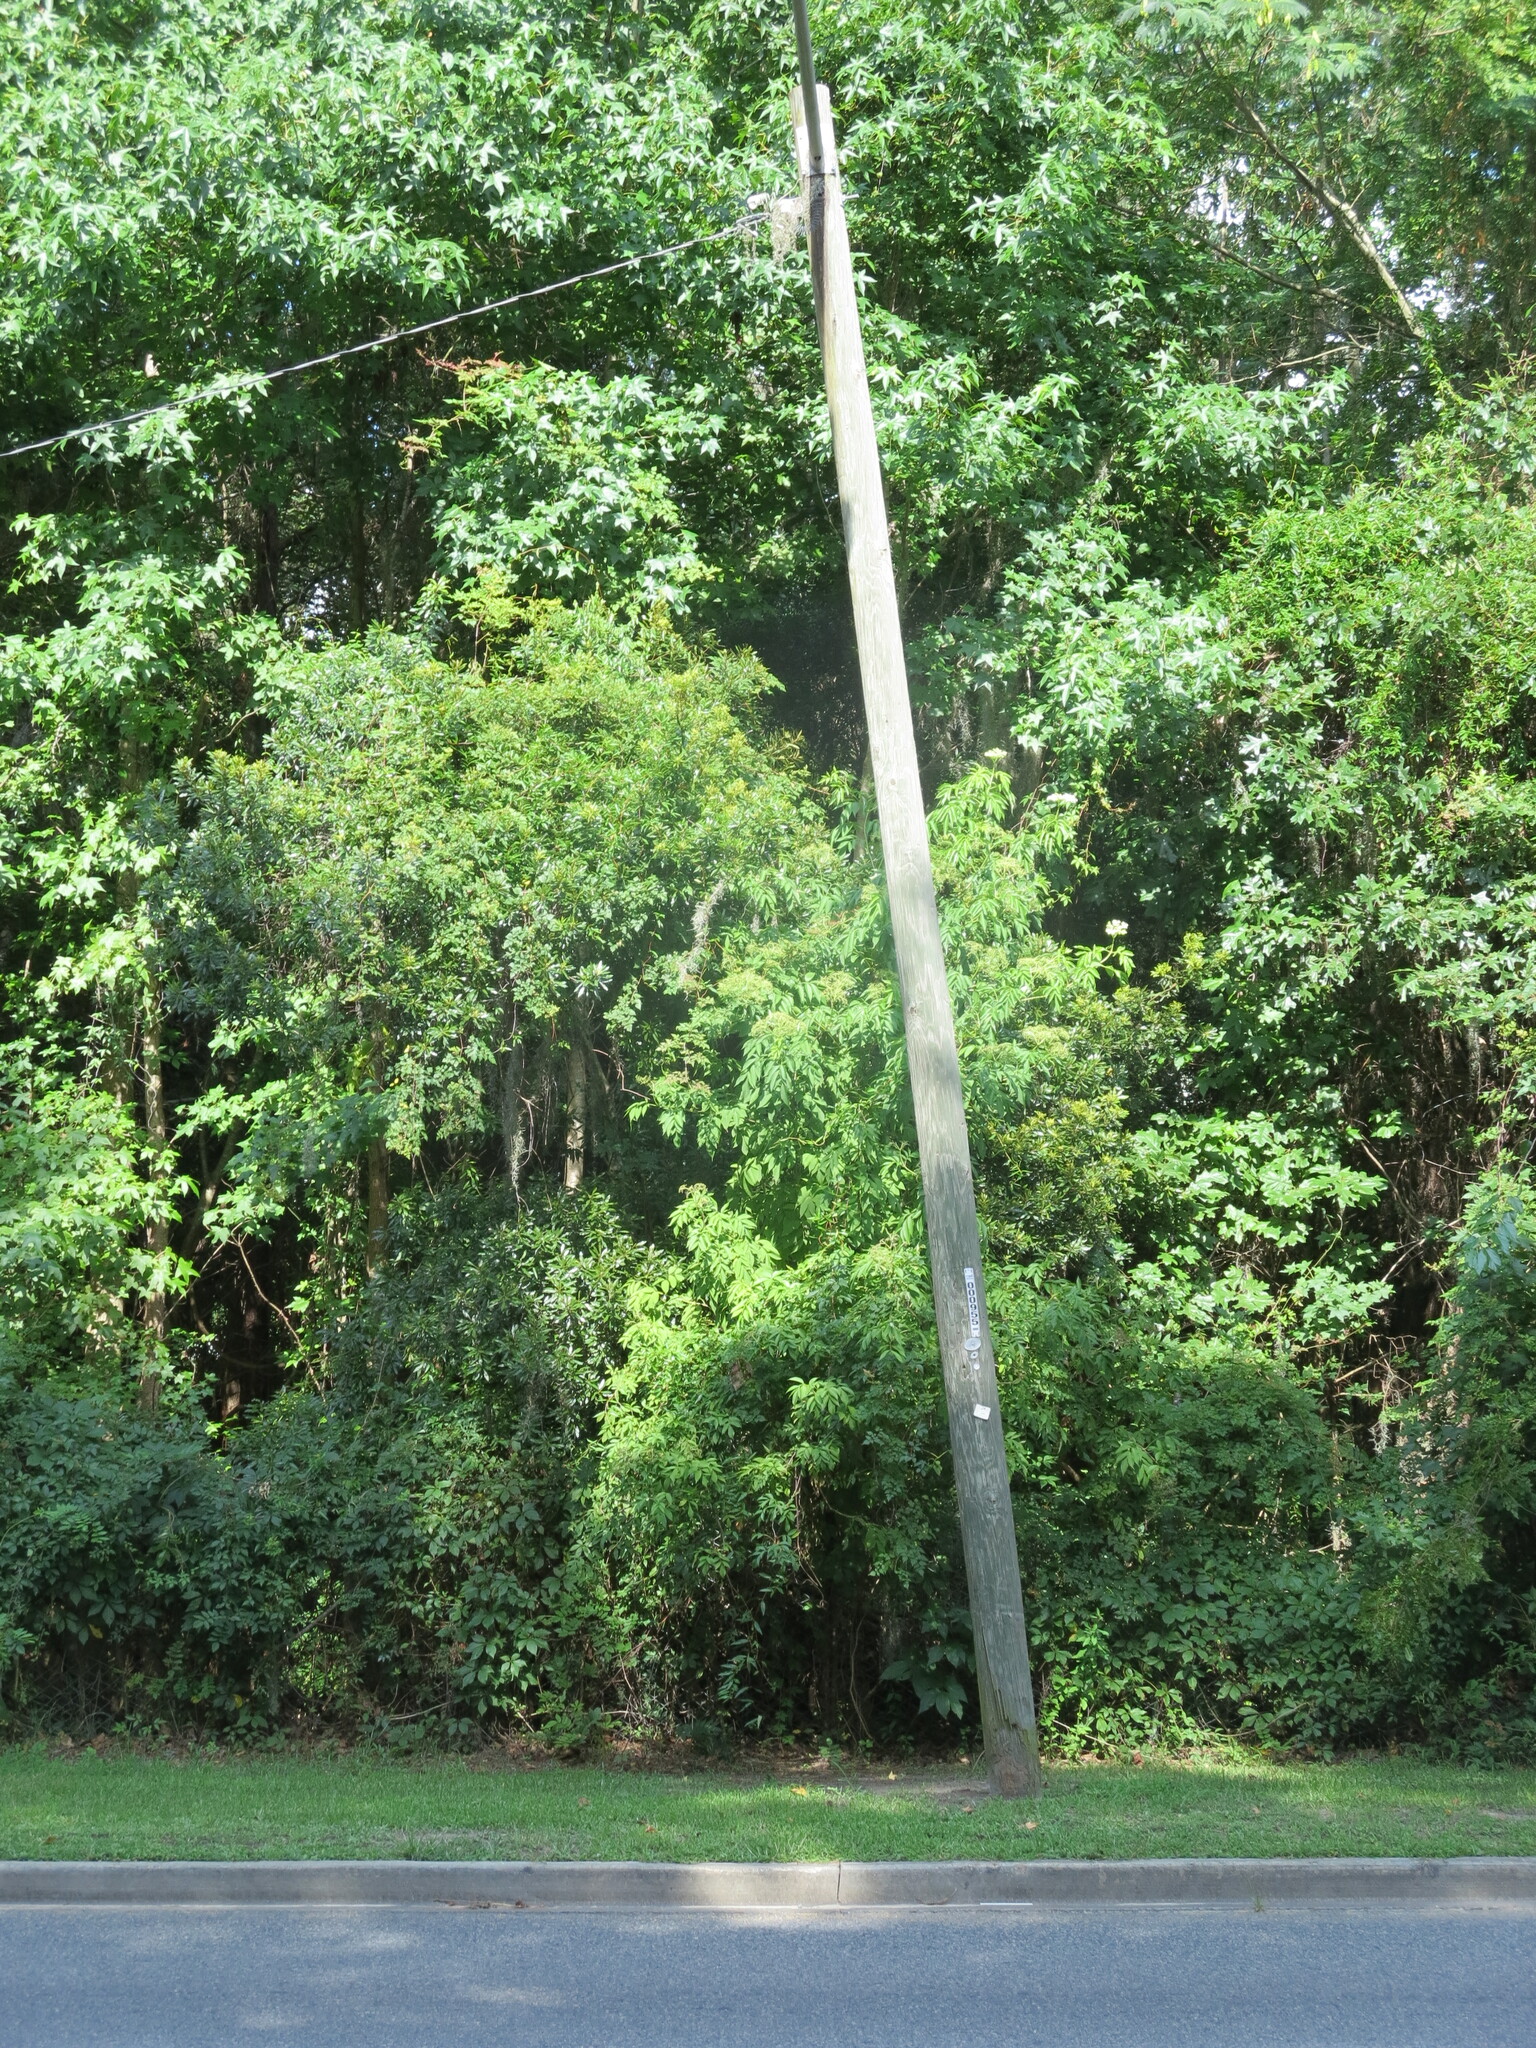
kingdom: Plantae
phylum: Tracheophyta
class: Magnoliopsida
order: Dipsacales
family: Viburnaceae
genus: Sambucus
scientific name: Sambucus canadensis
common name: American elder
